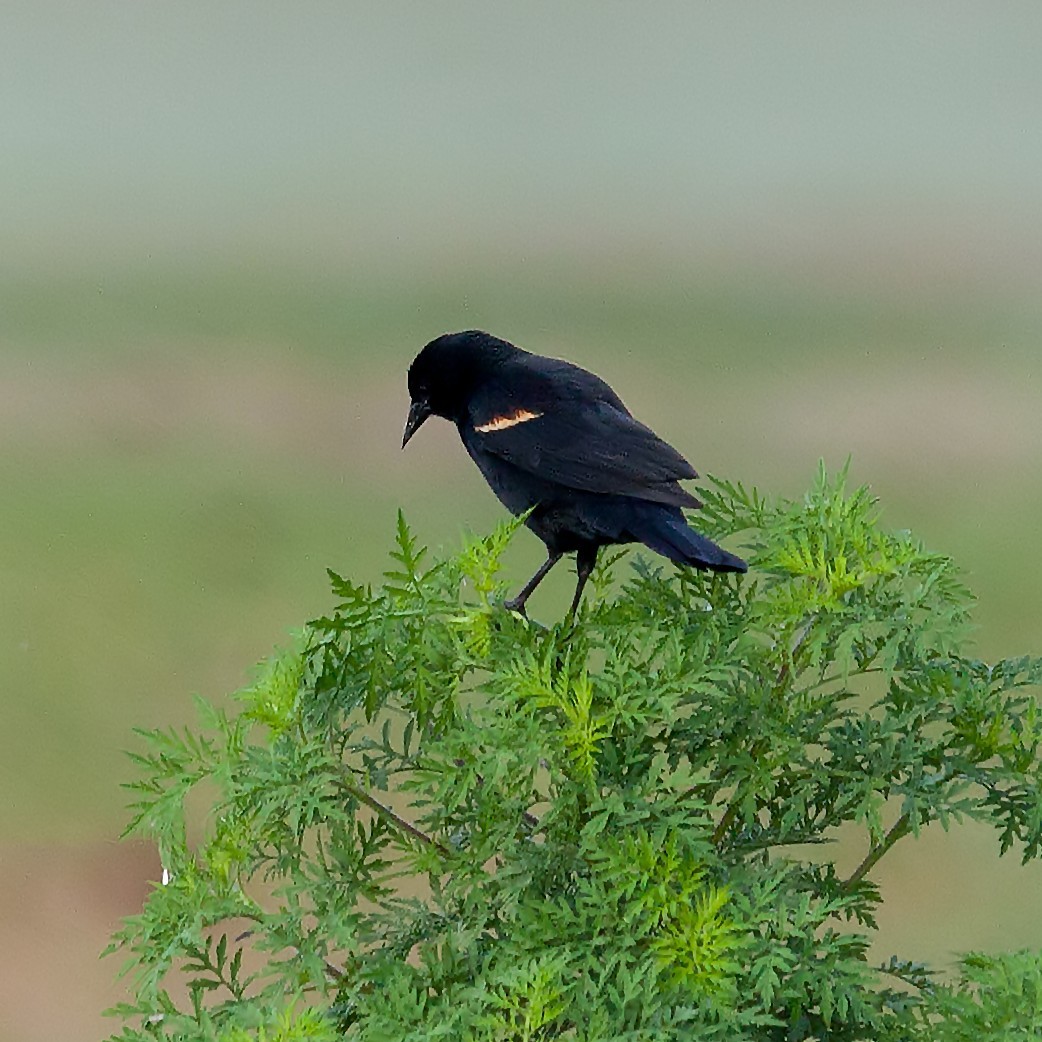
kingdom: Animalia
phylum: Chordata
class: Aves
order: Passeriformes
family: Icteridae
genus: Agelaius
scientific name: Agelaius phoeniceus
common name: Red-winged blackbird
